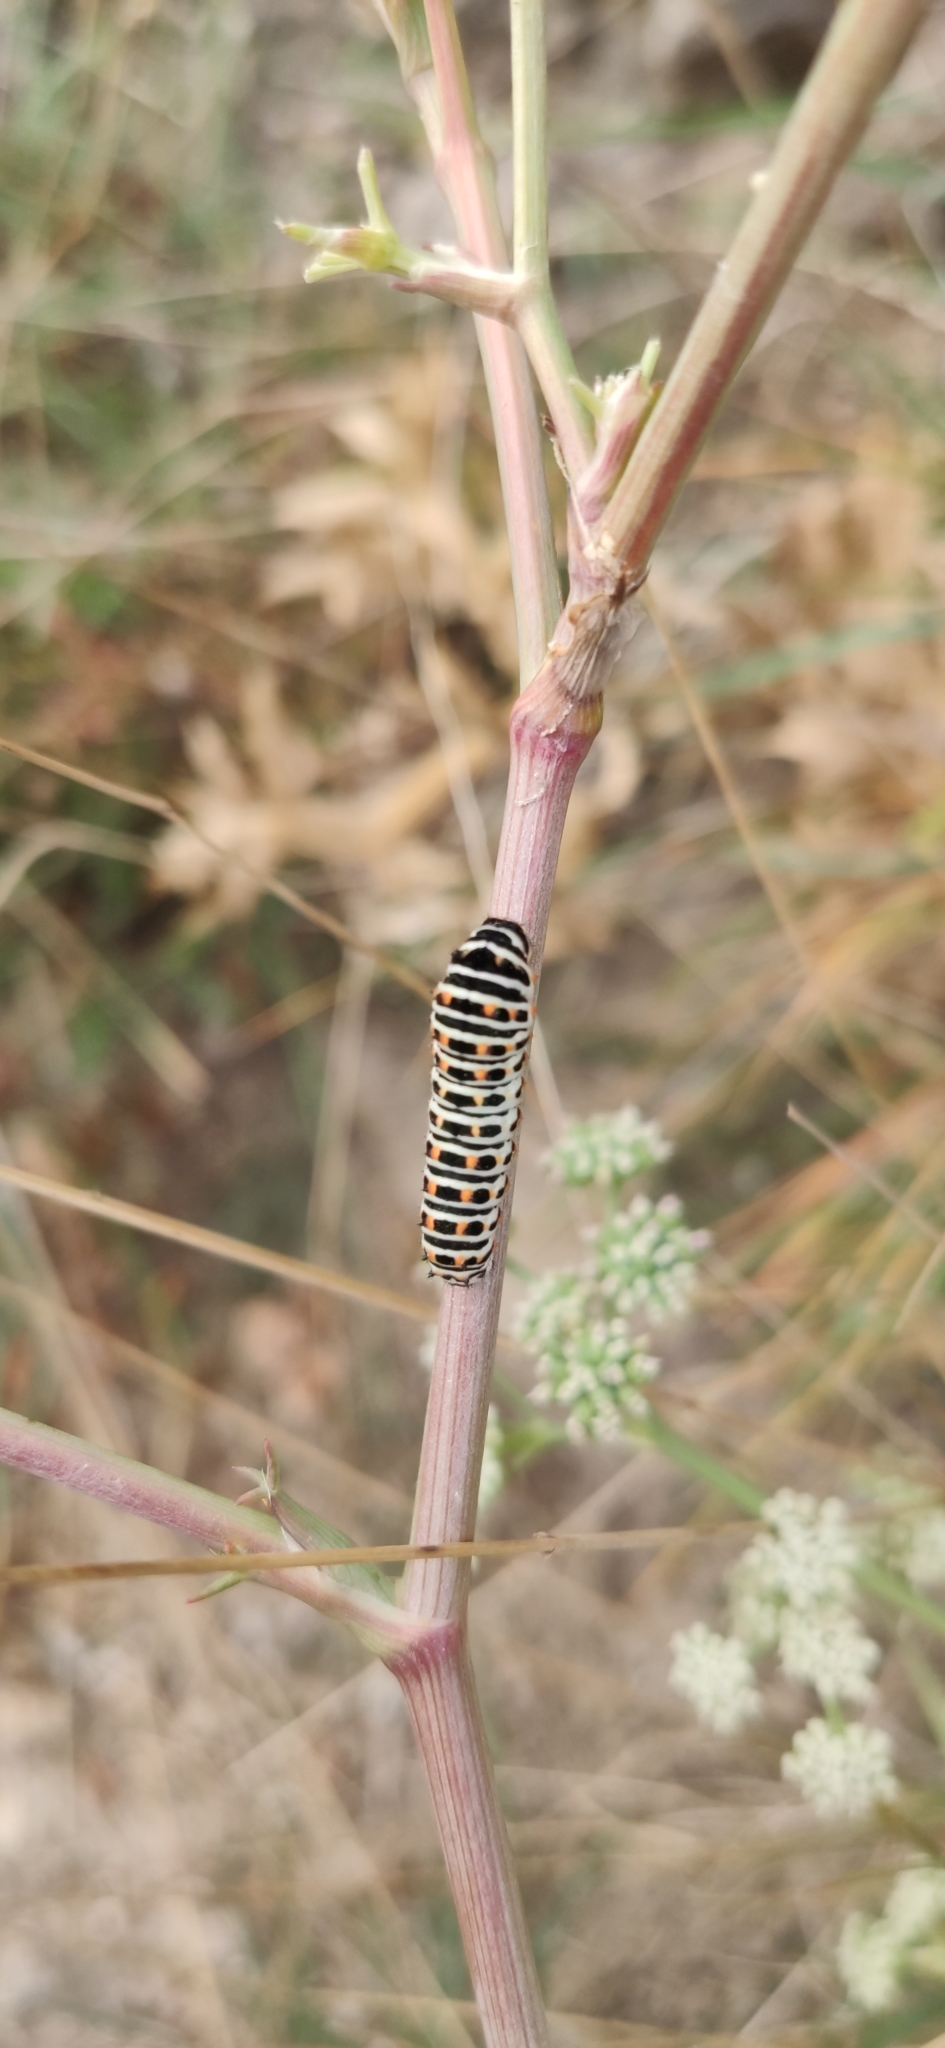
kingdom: Animalia
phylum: Arthropoda
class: Insecta
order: Lepidoptera
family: Papilionidae
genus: Papilio
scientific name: Papilio machaon
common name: Swallowtail
